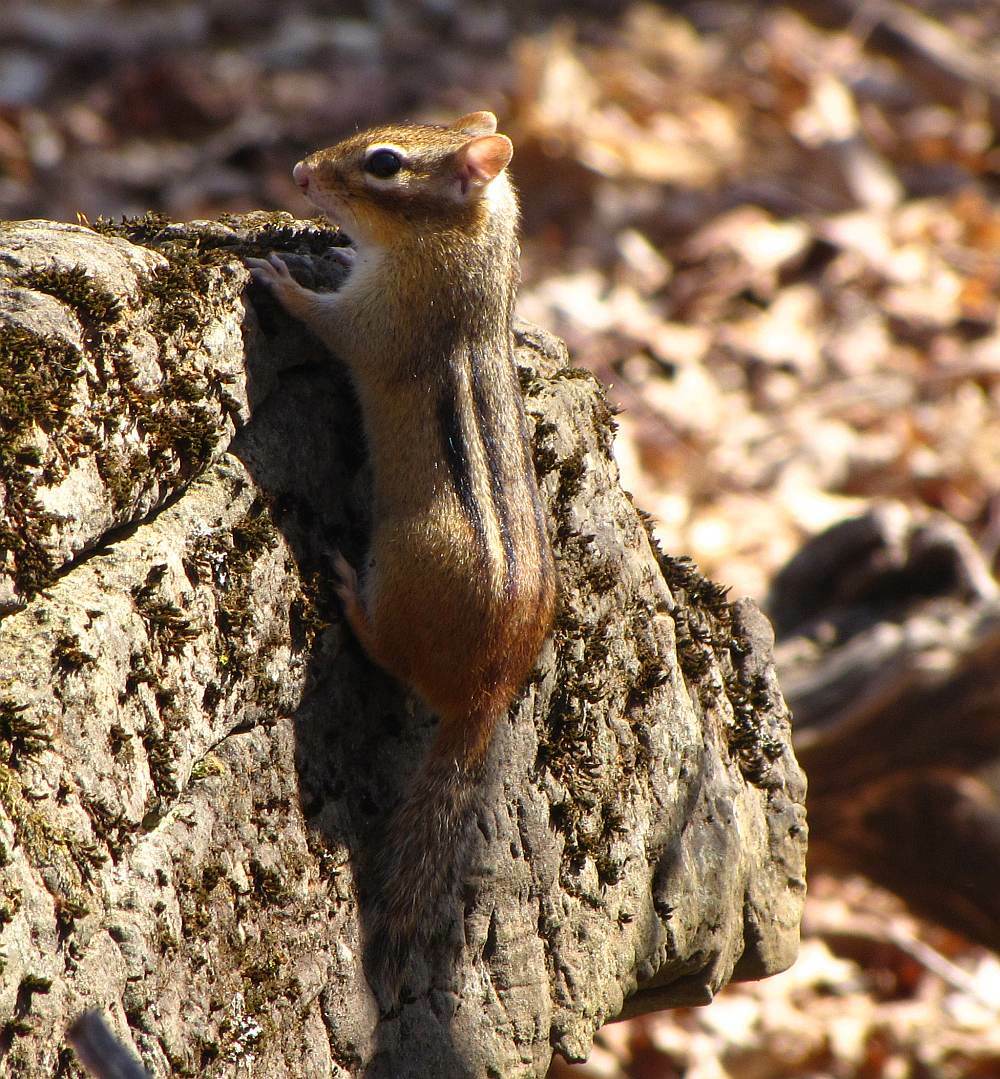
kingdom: Animalia
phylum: Chordata
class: Mammalia
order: Rodentia
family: Sciuridae
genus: Tamias
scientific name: Tamias striatus
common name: Eastern chipmunk
